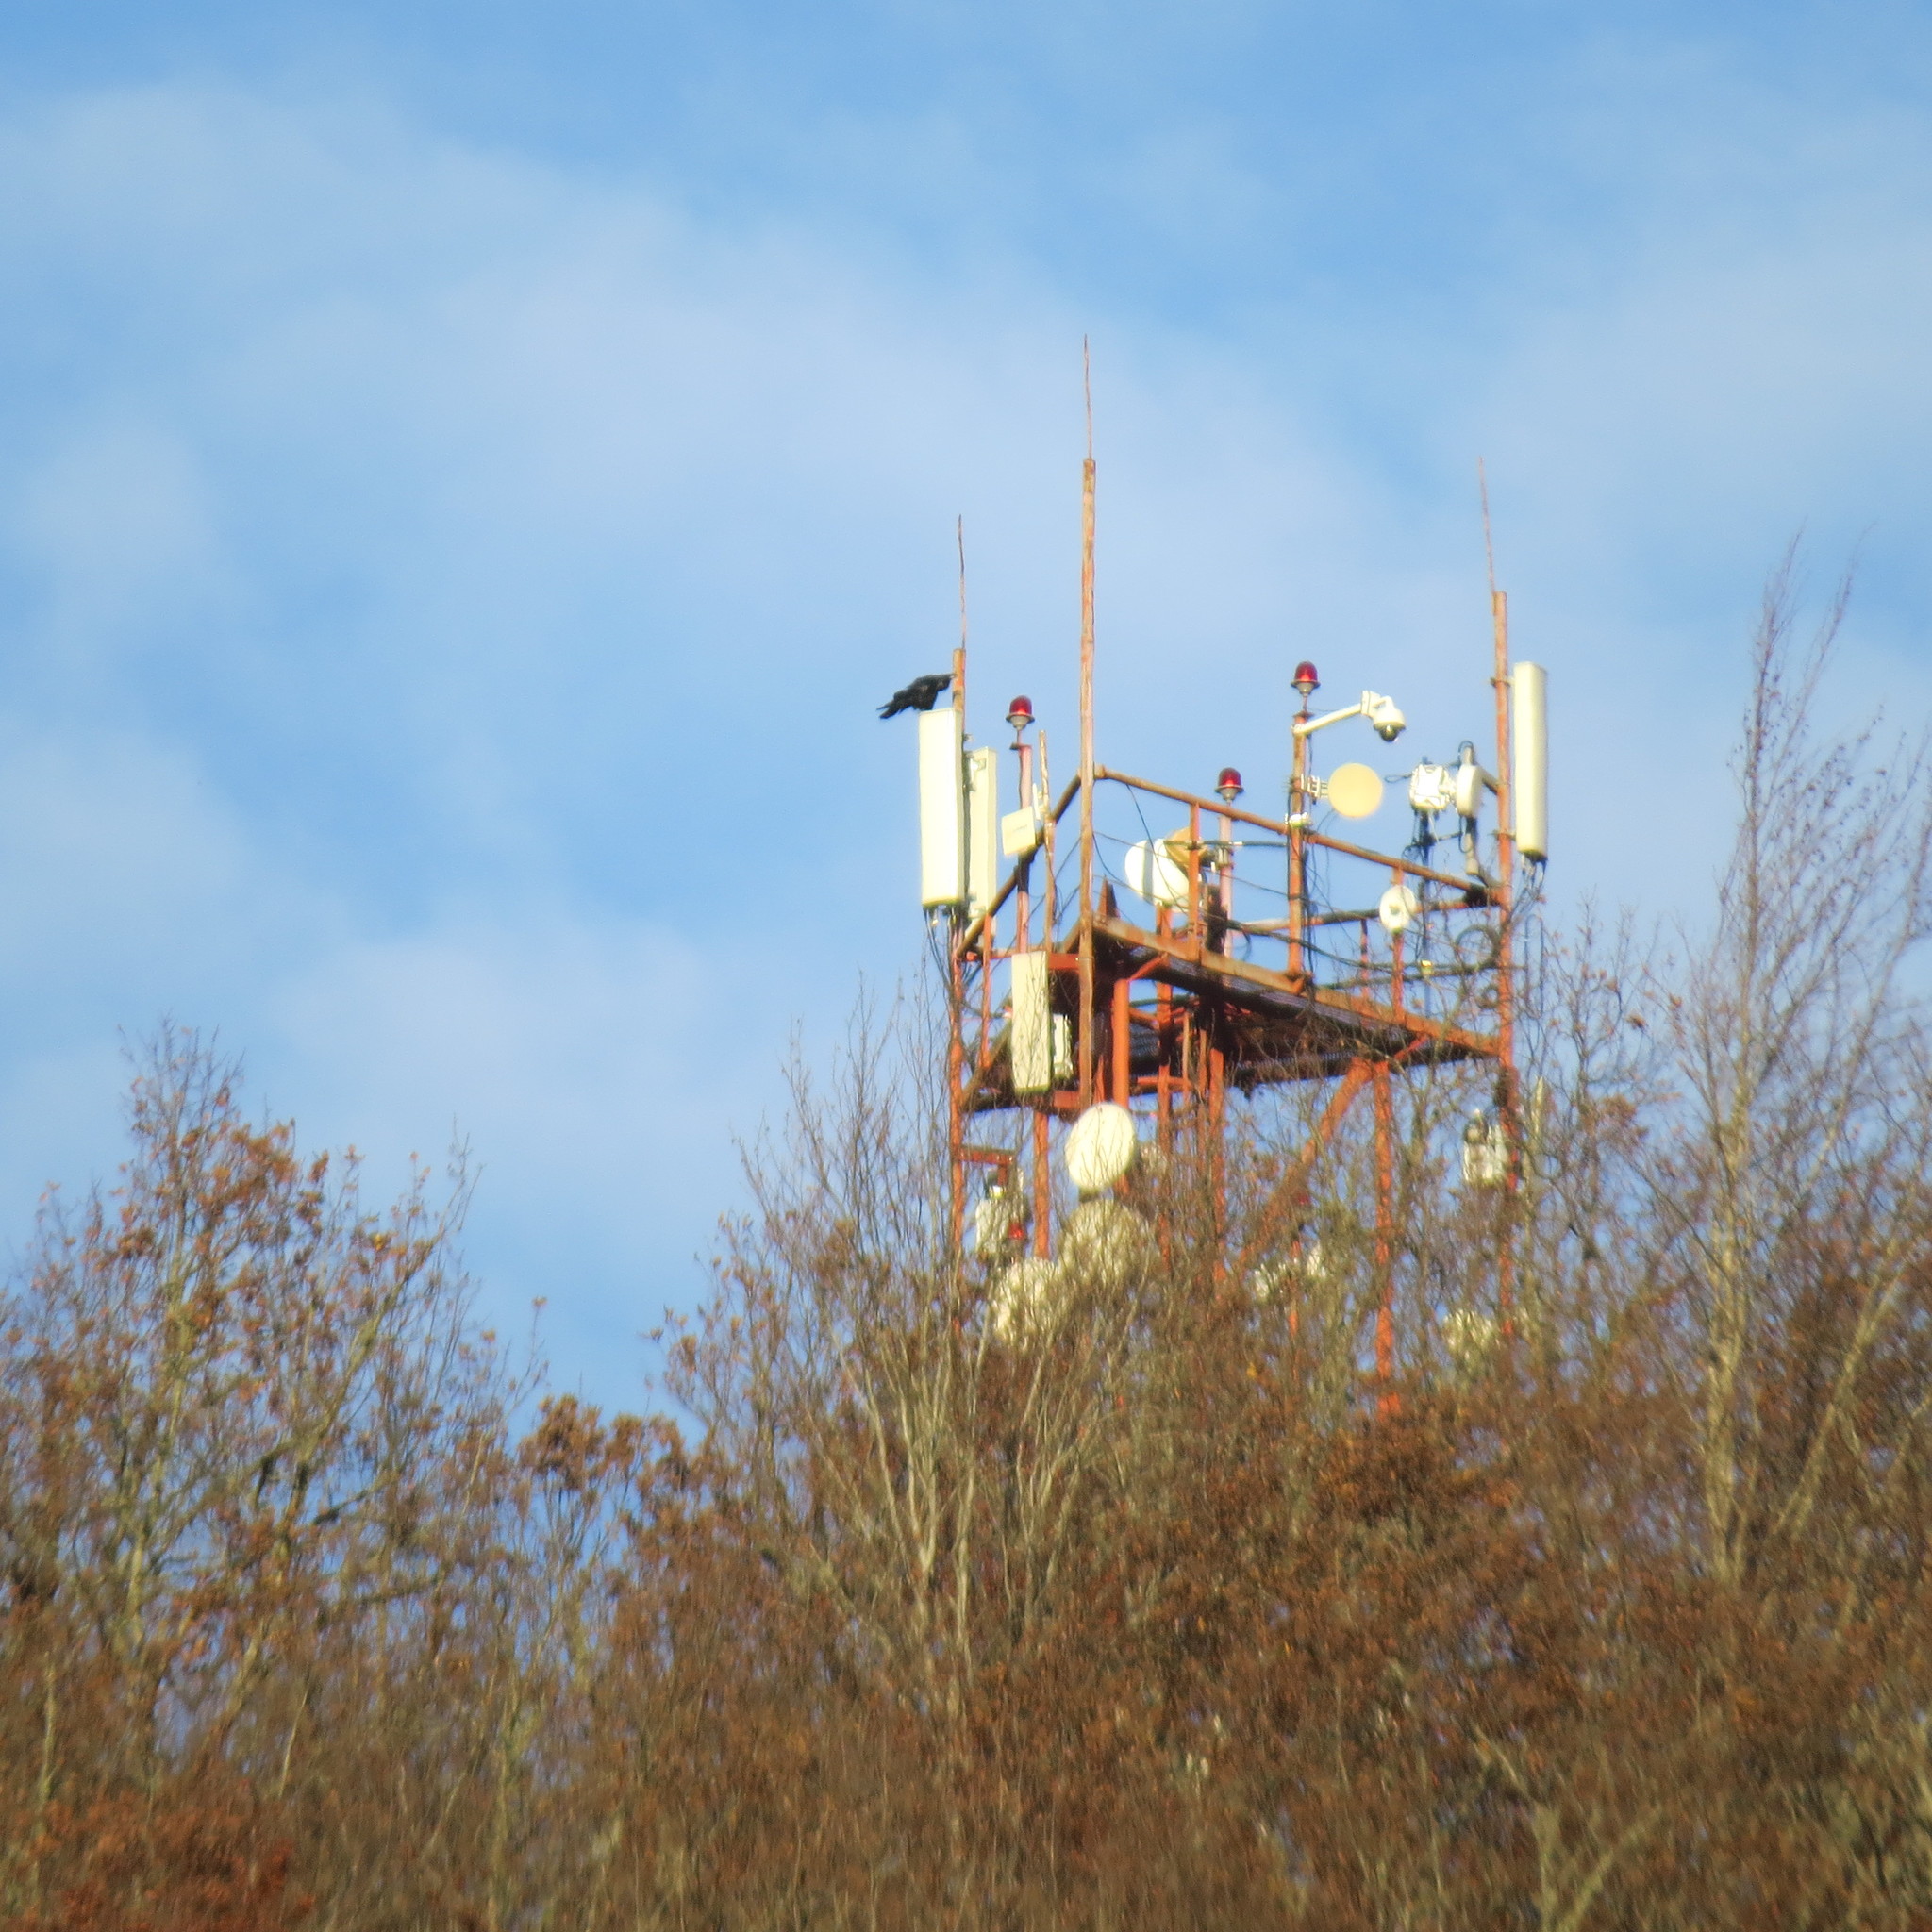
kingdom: Animalia
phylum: Chordata
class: Aves
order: Passeriformes
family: Corvidae
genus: Corvus
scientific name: Corvus corax
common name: Common raven
